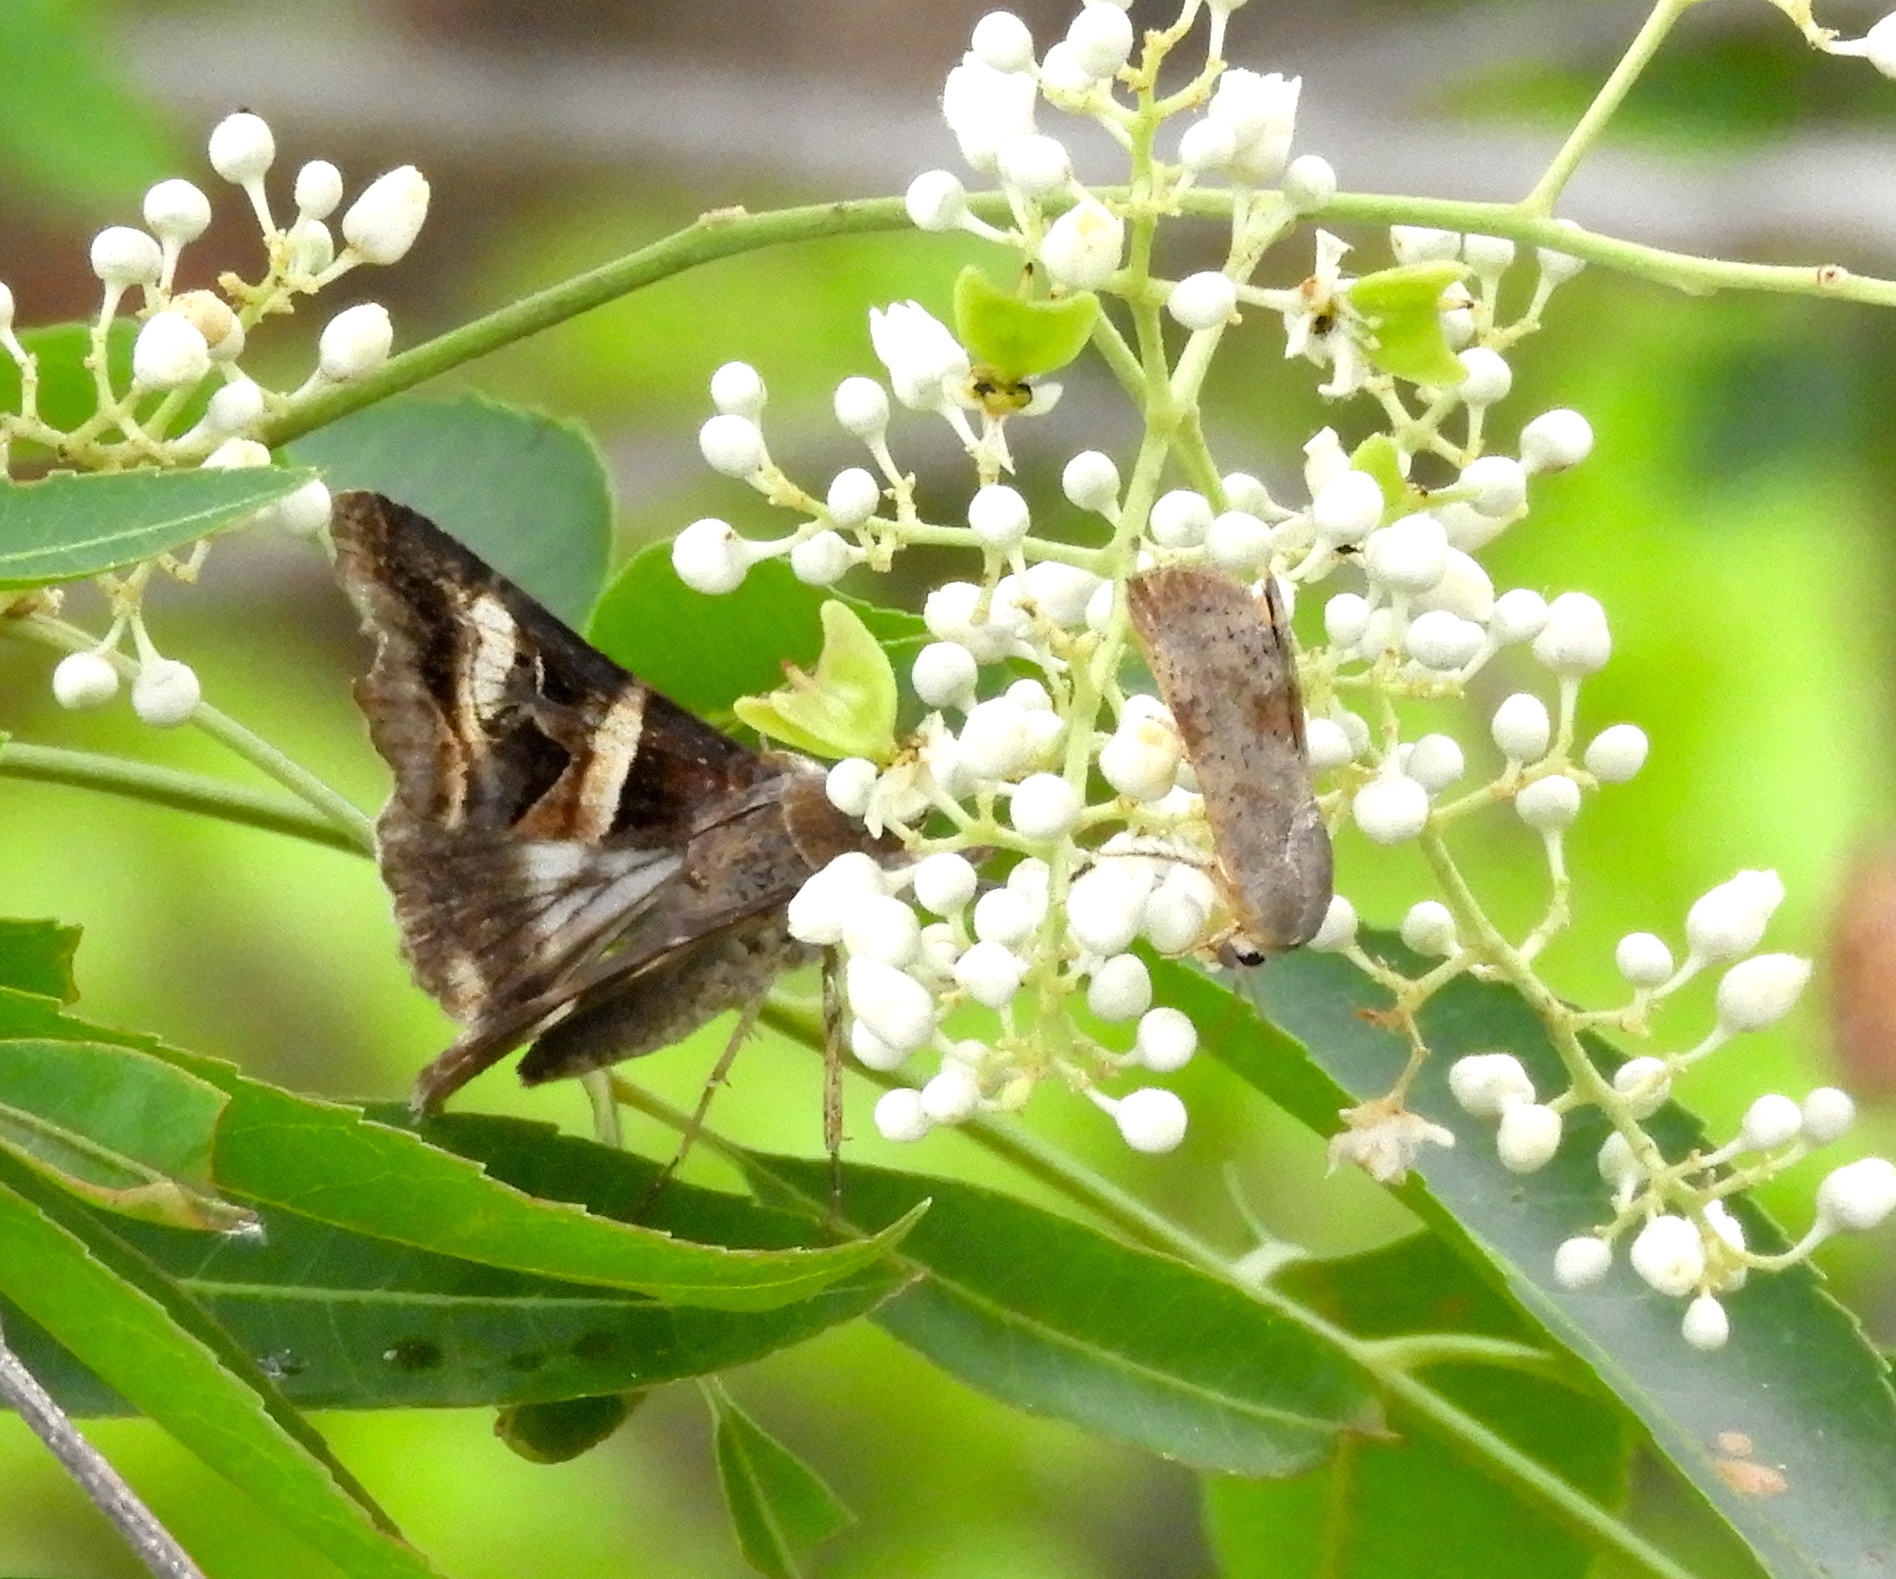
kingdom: Animalia
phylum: Arthropoda
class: Insecta
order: Lepidoptera
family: Erebidae
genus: Melipotis
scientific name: Melipotis
